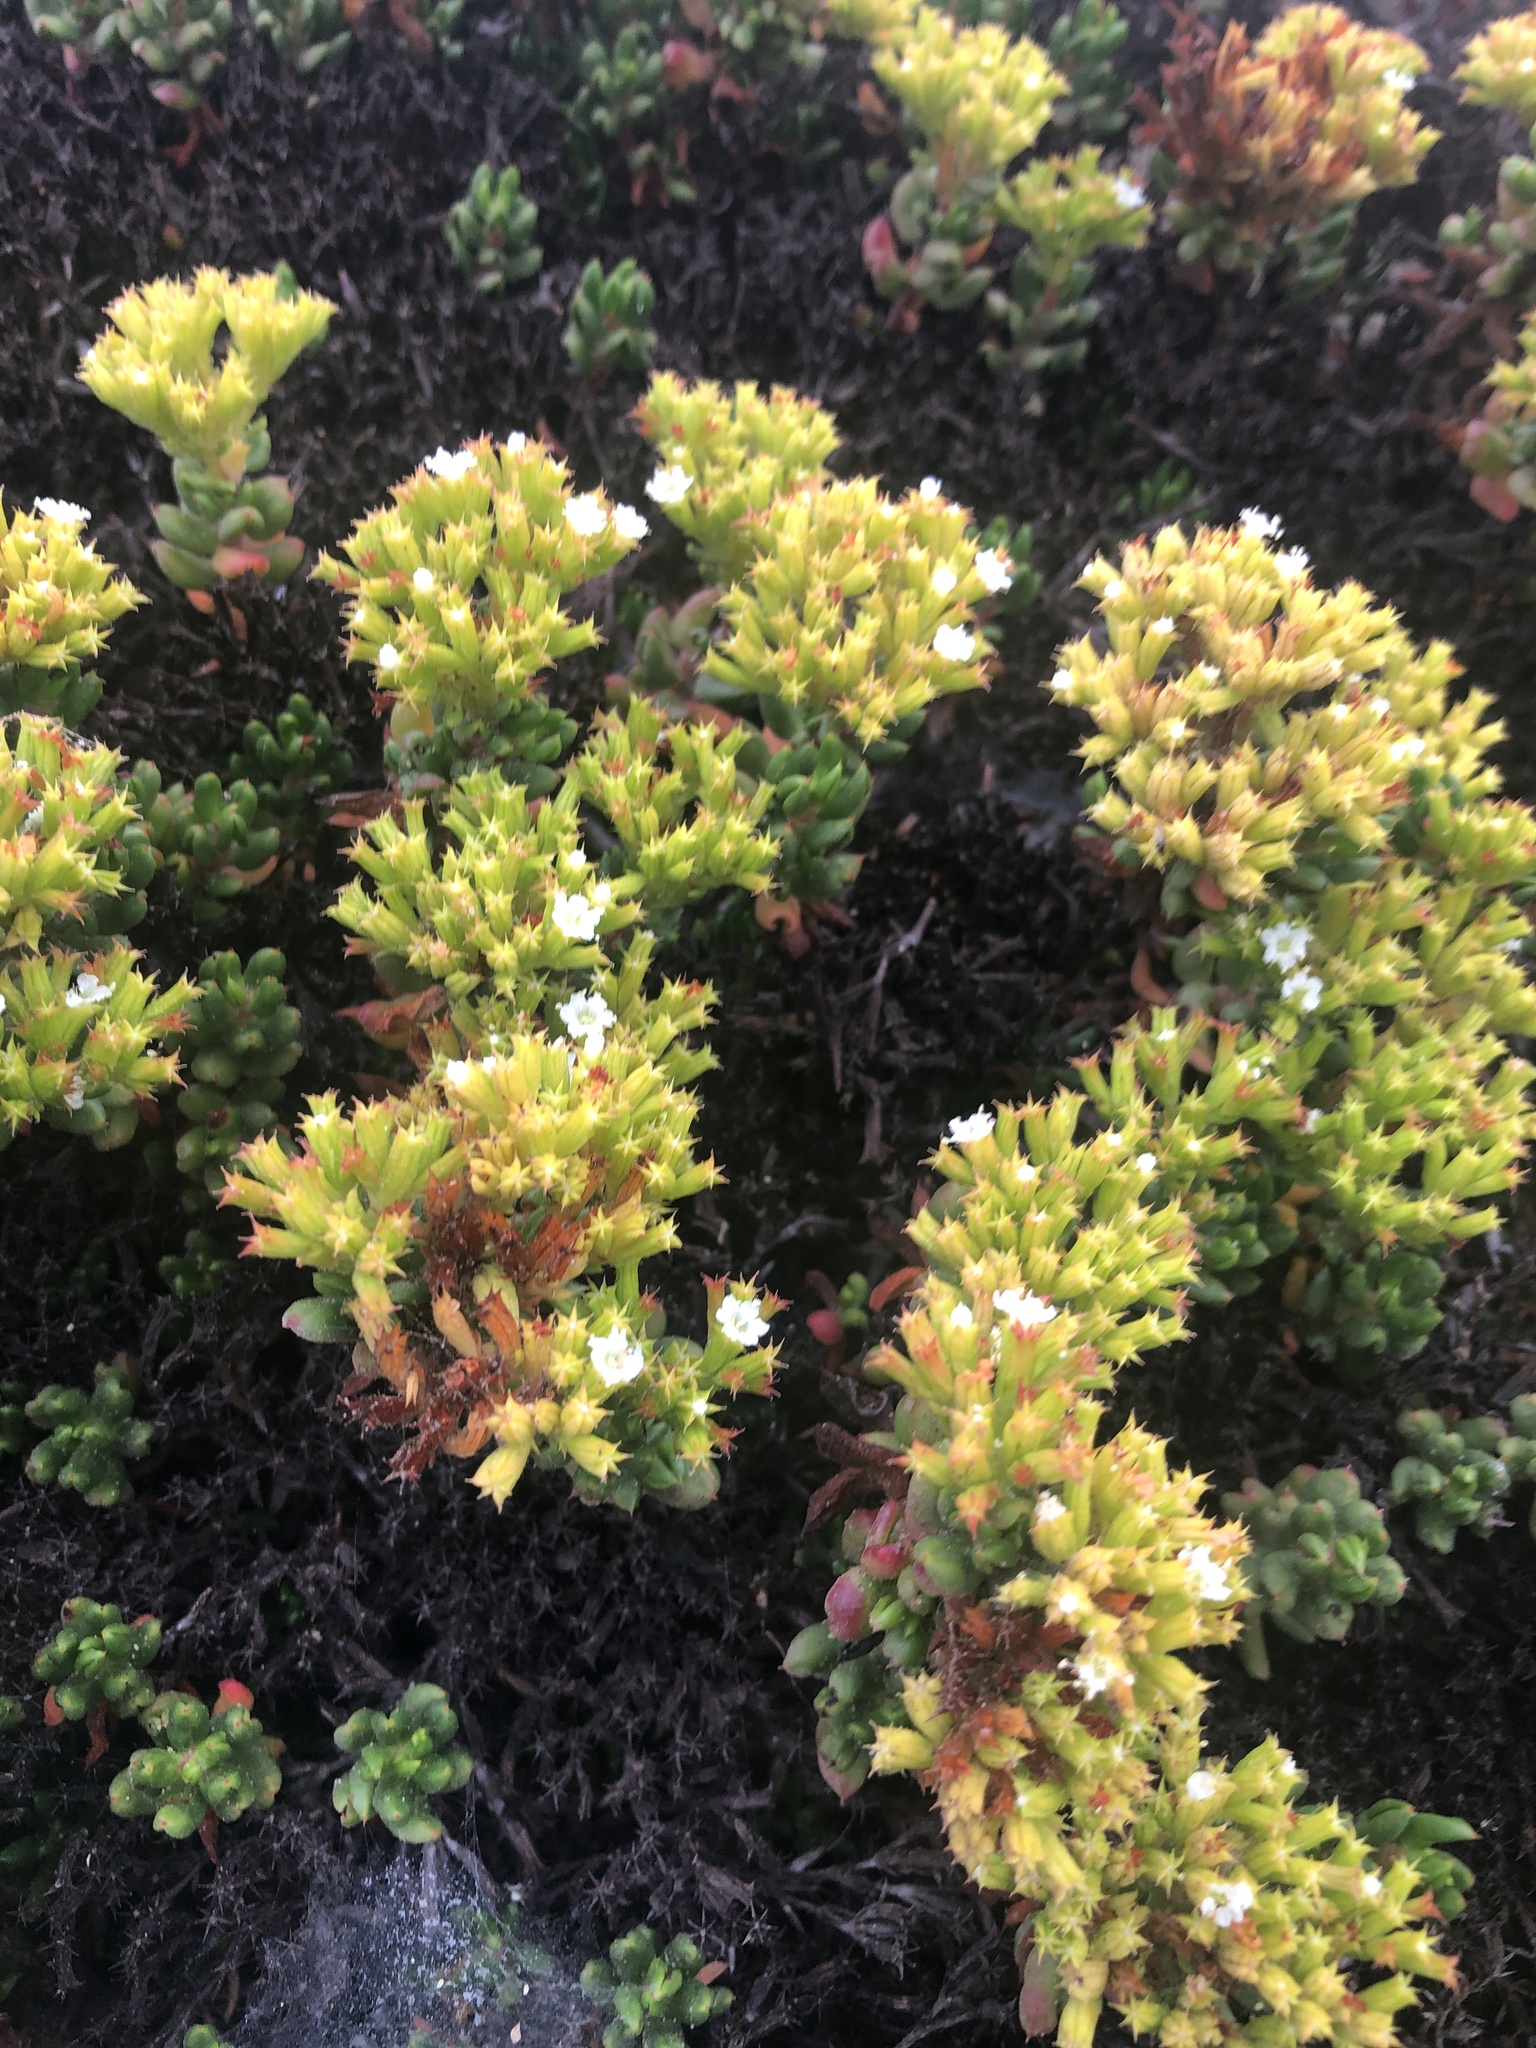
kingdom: Plantae
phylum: Tracheophyta
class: Magnoliopsida
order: Caryophyllales
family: Polygonaceae
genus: Chorizanthe
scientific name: Chorizanthe mieresii
